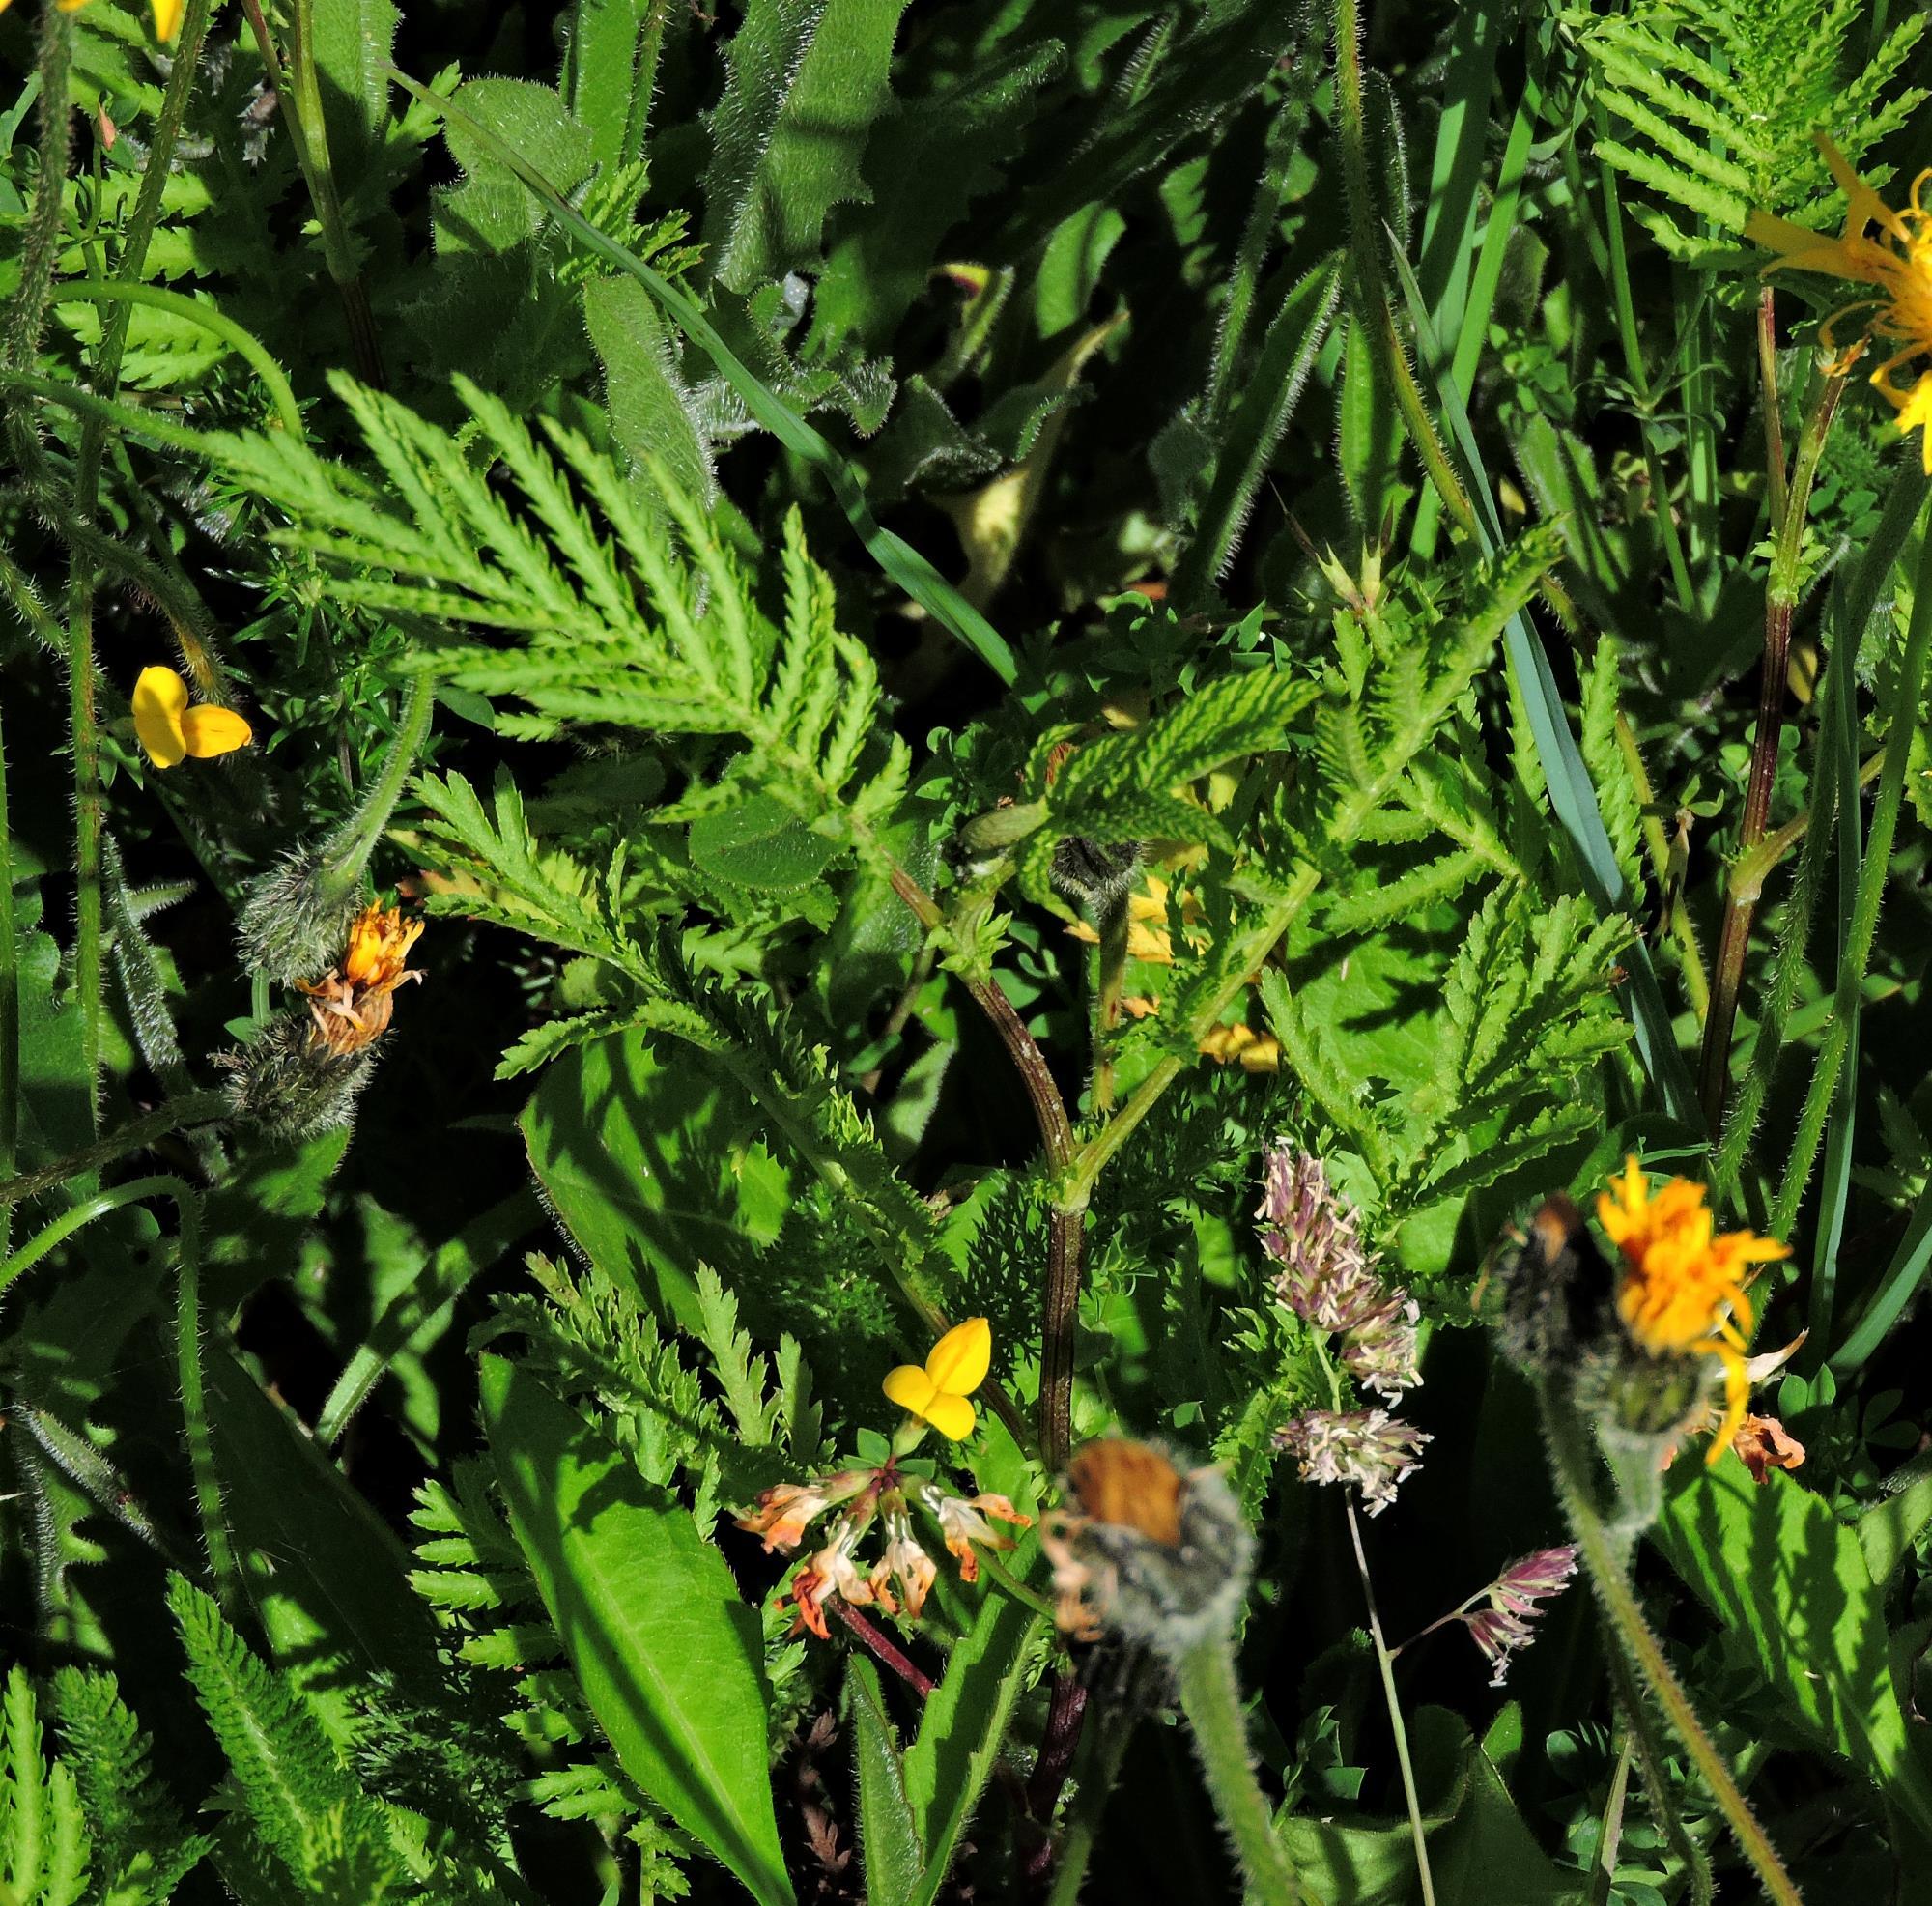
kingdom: Plantae
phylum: Tracheophyta
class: Magnoliopsida
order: Asterales
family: Asteraceae
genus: Tanacetum
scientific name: Tanacetum vulgare
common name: Common tansy
